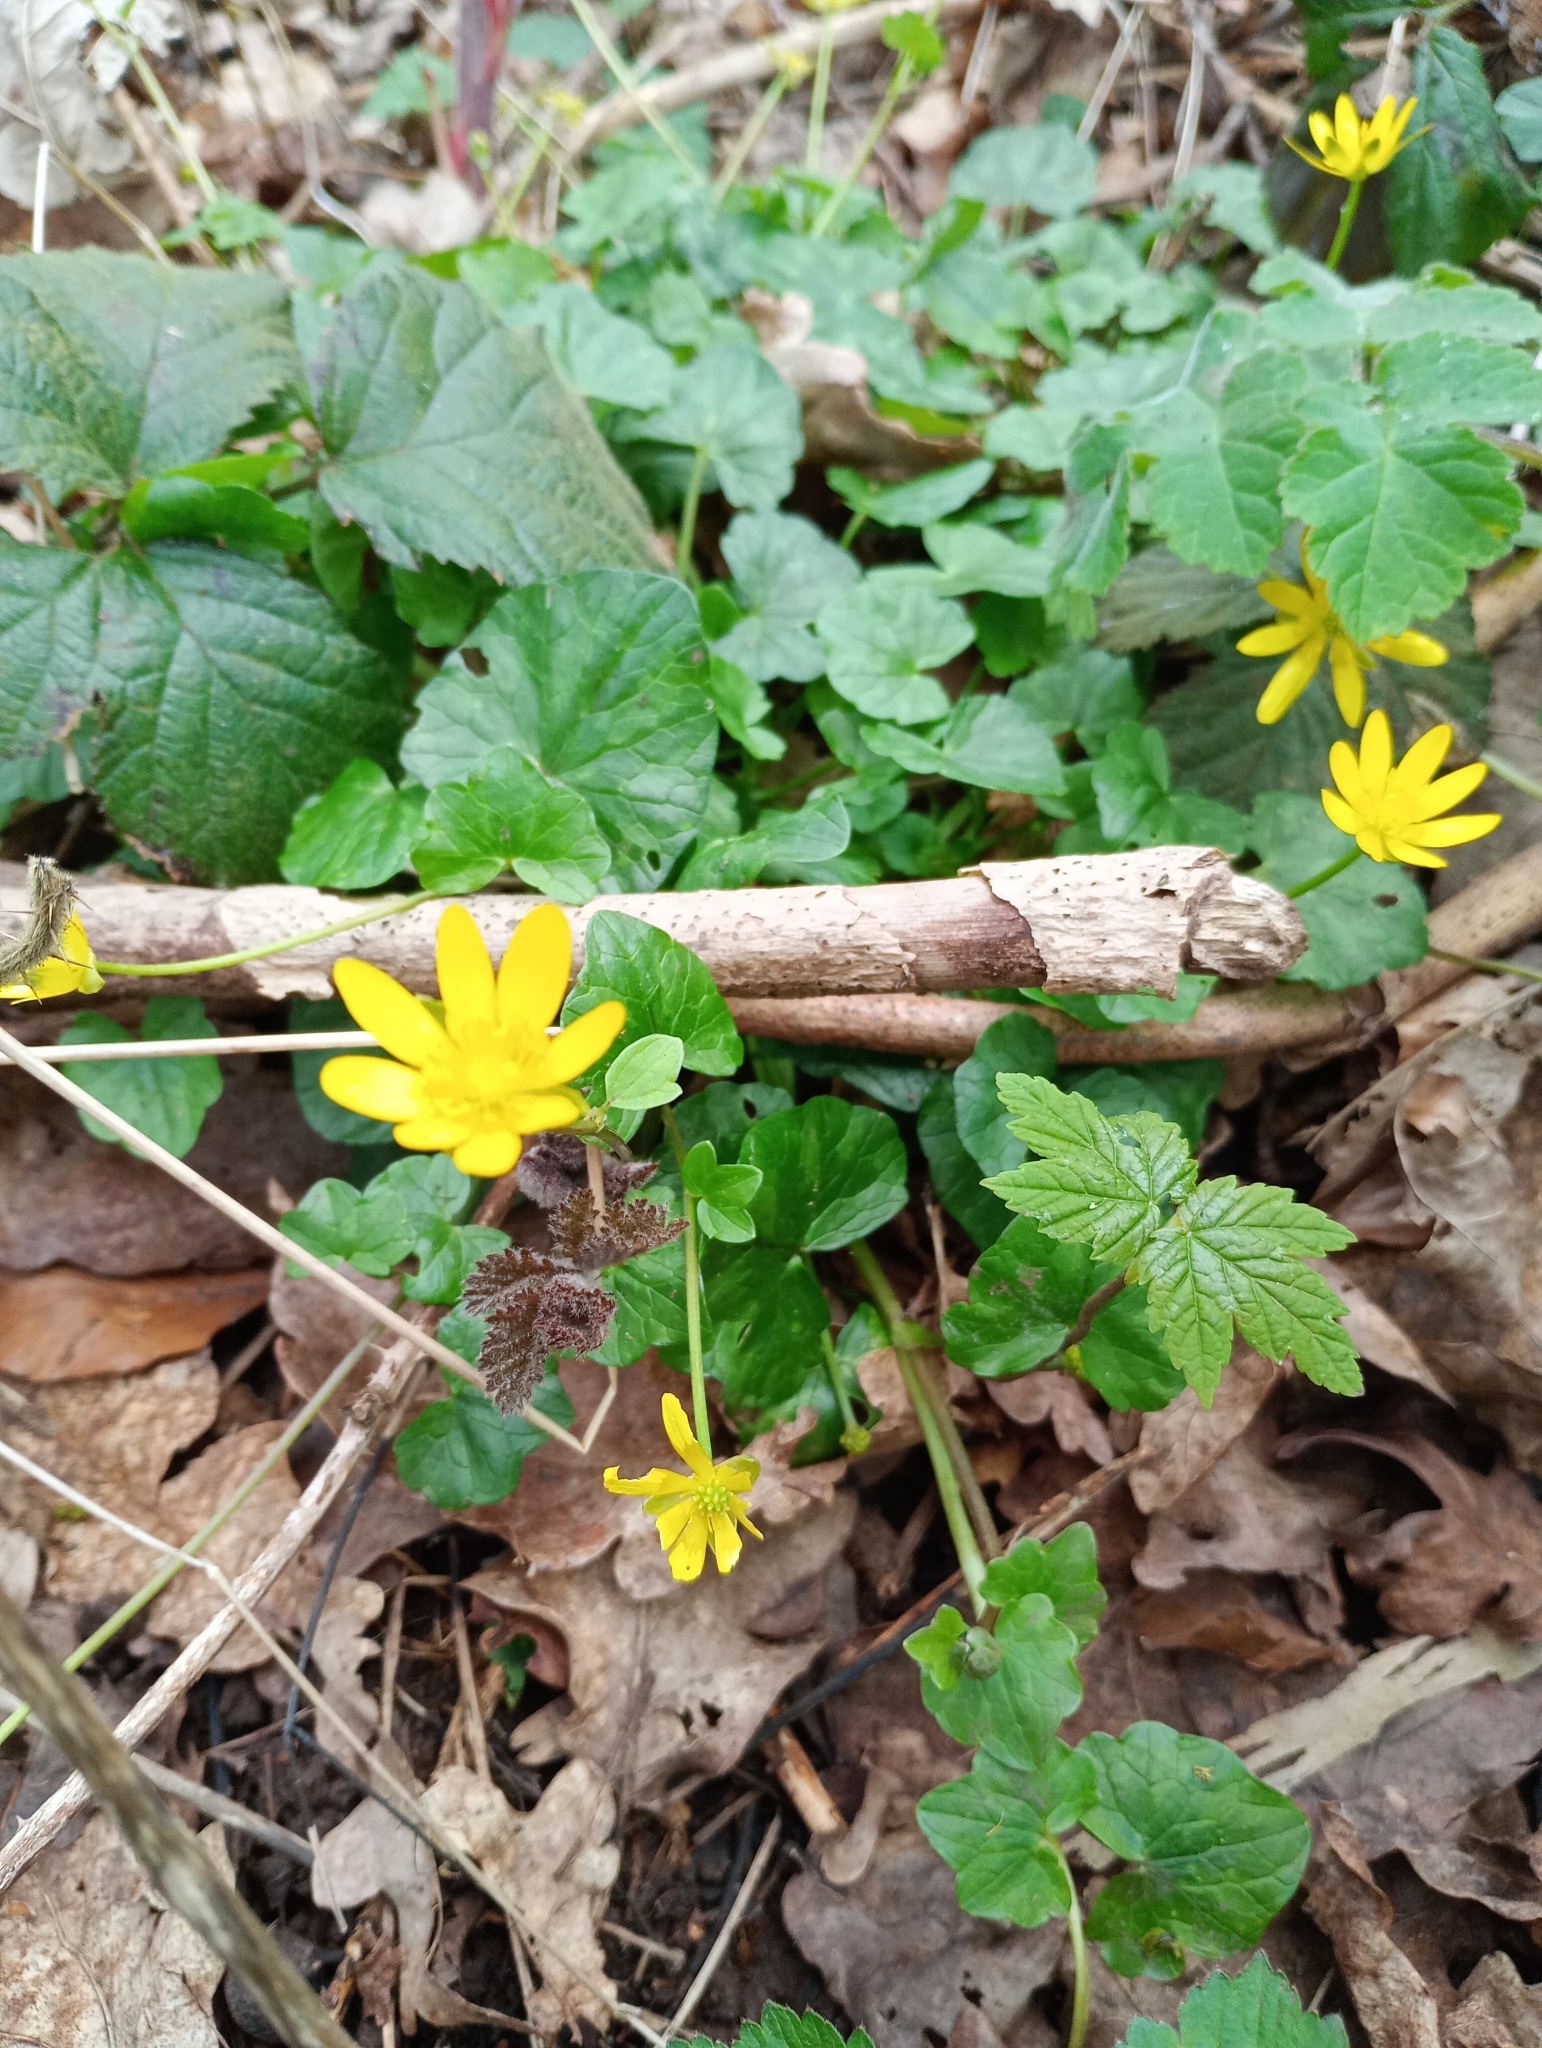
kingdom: Plantae
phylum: Tracheophyta
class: Magnoliopsida
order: Ranunculales
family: Ranunculaceae
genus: Ficaria
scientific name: Ficaria verna
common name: Lesser celandine
